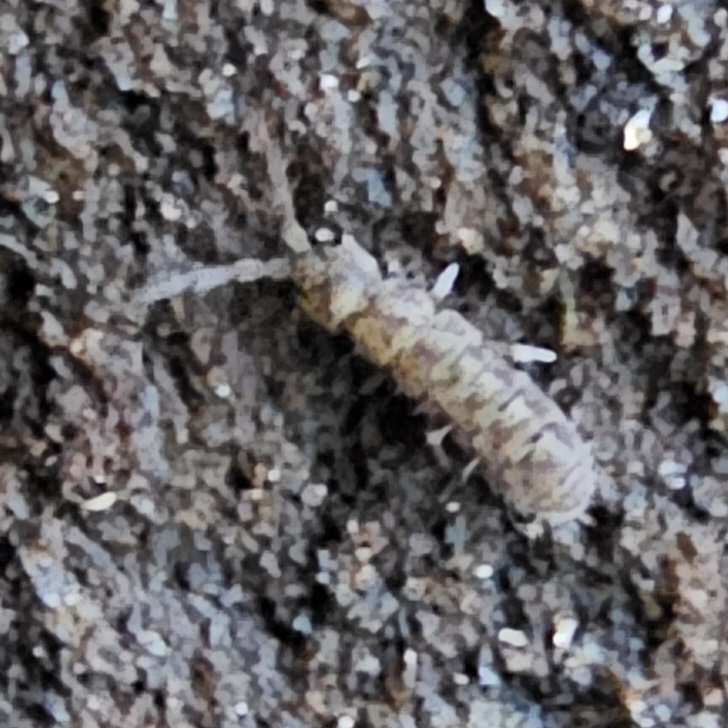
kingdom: Animalia
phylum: Arthropoda
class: Collembola
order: Entomobryomorpha
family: Isotomidae
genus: Isotoma
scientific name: Isotoma delta
